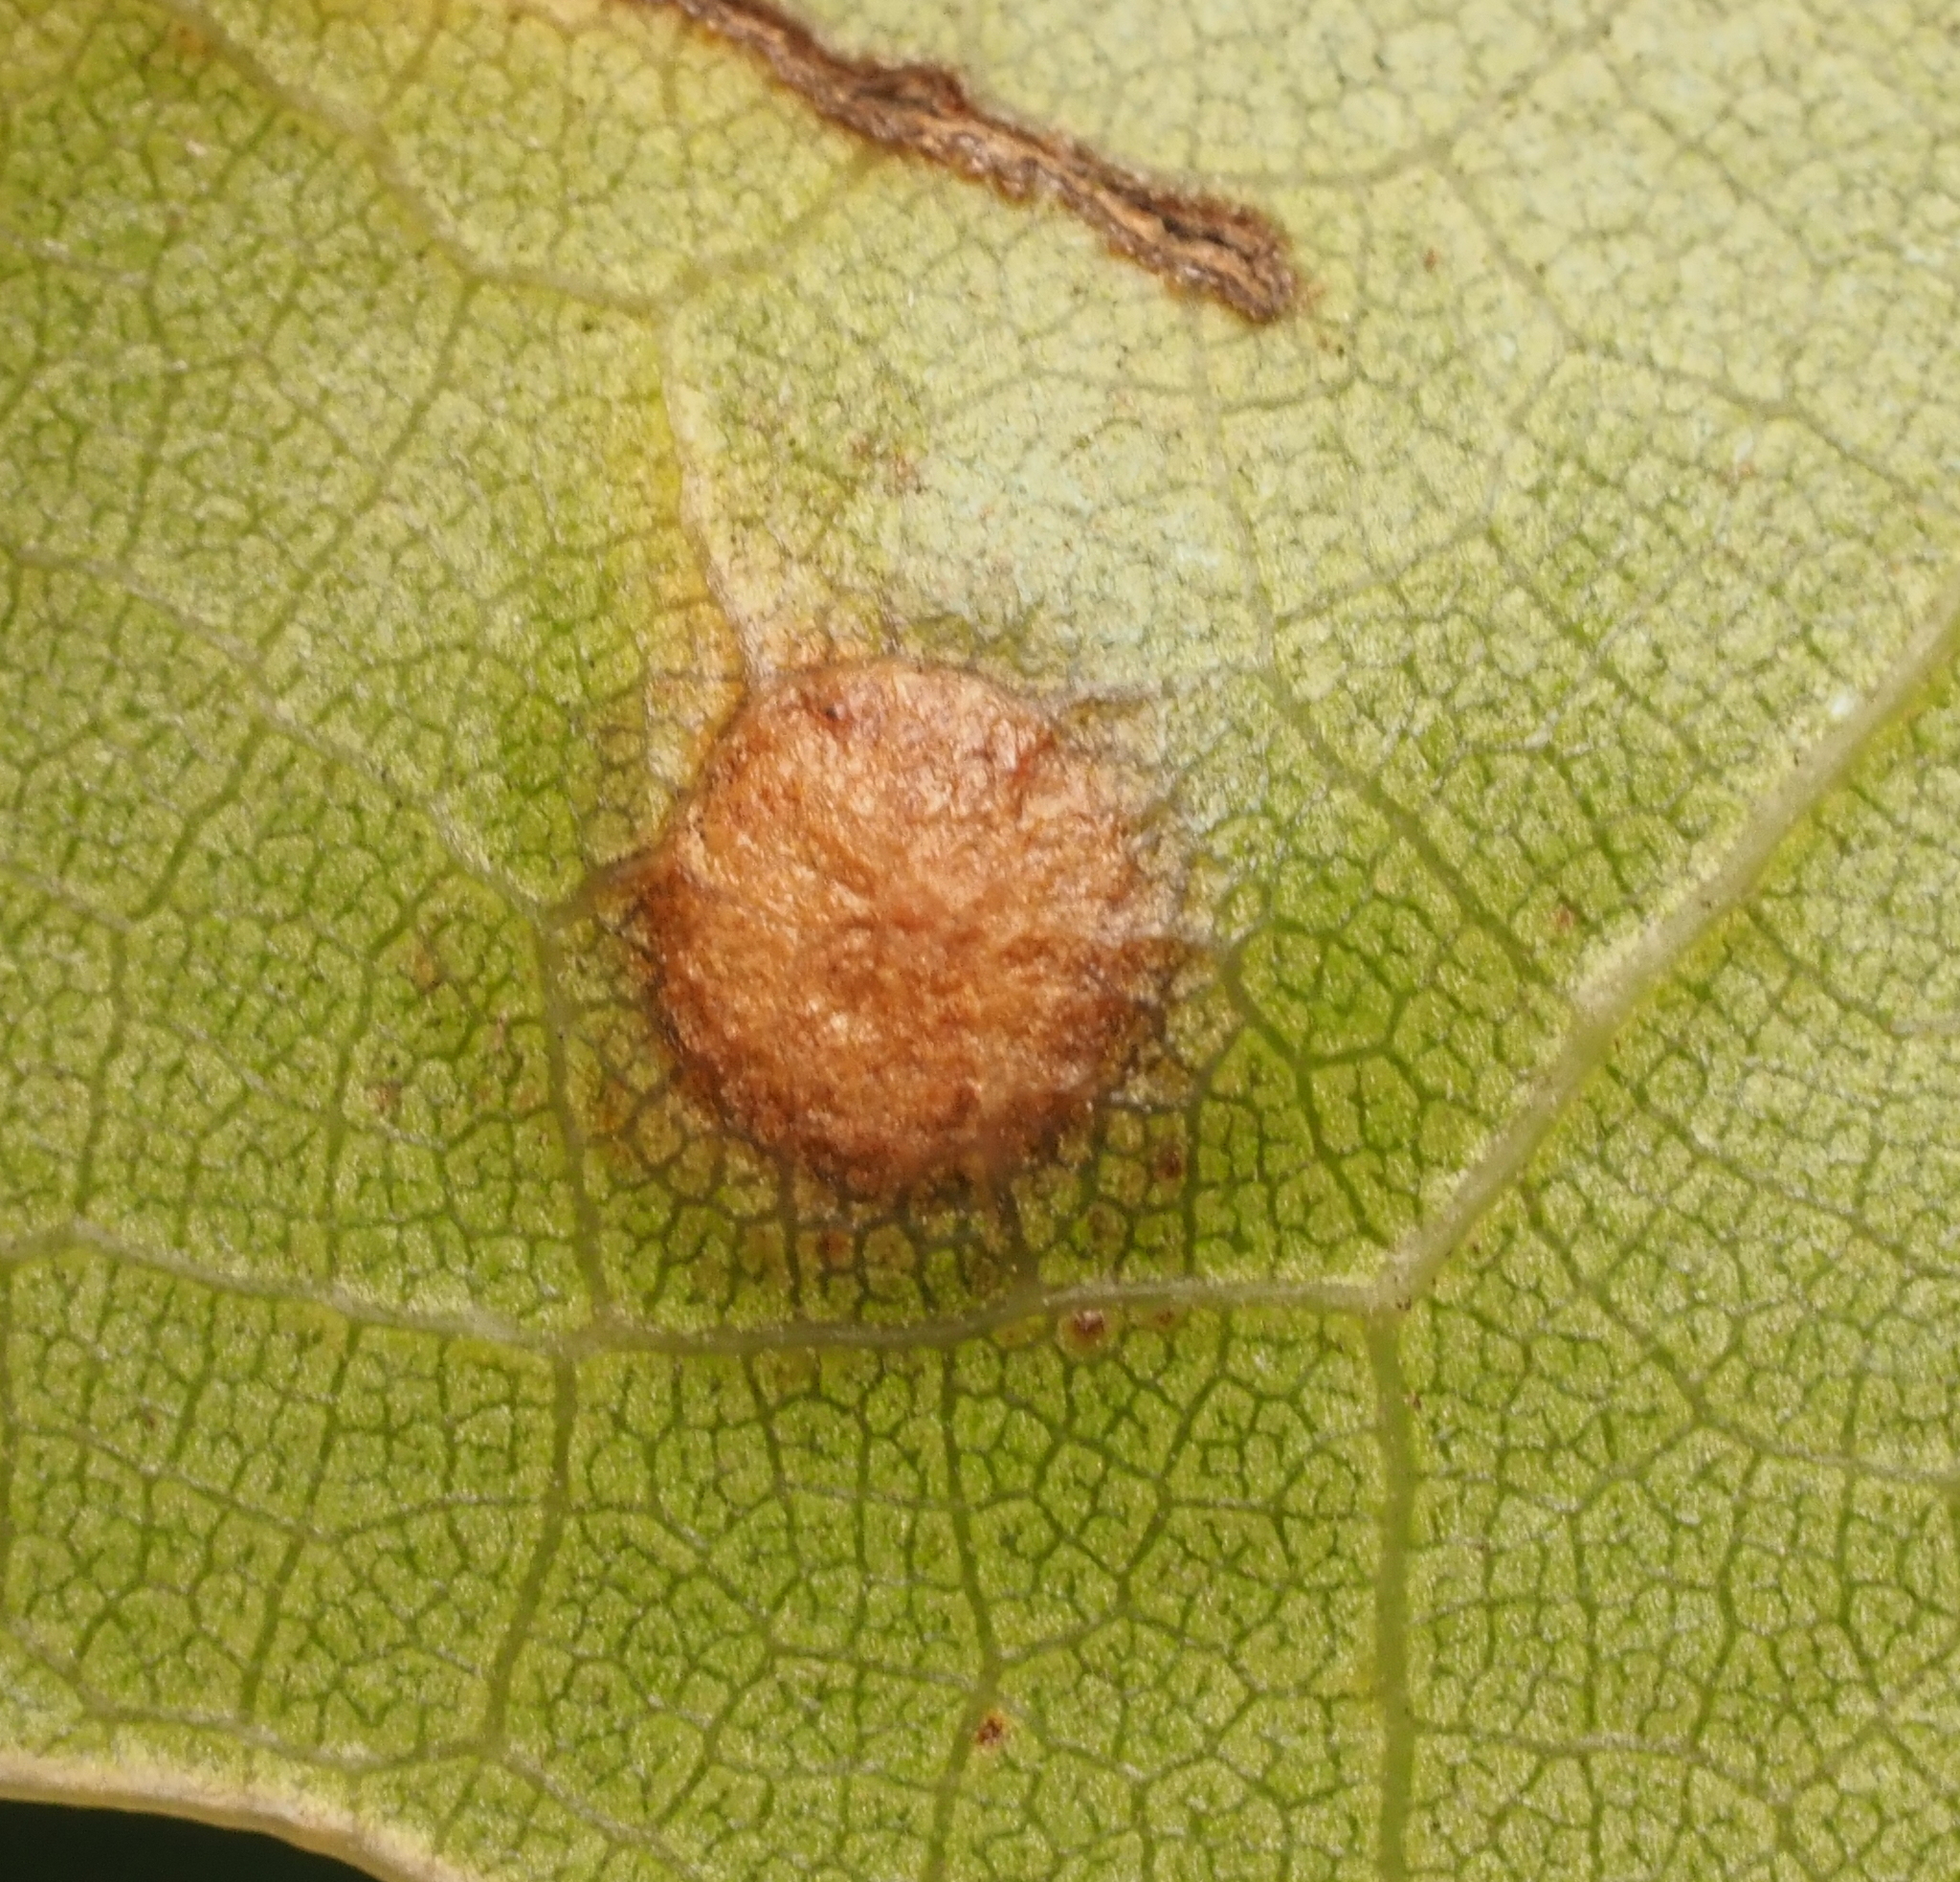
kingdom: Animalia
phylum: Arthropoda
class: Insecta
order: Diptera
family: Cecidomyiidae
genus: Polystepha
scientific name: Polystepha pilulae
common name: Oak leaf gall midge
